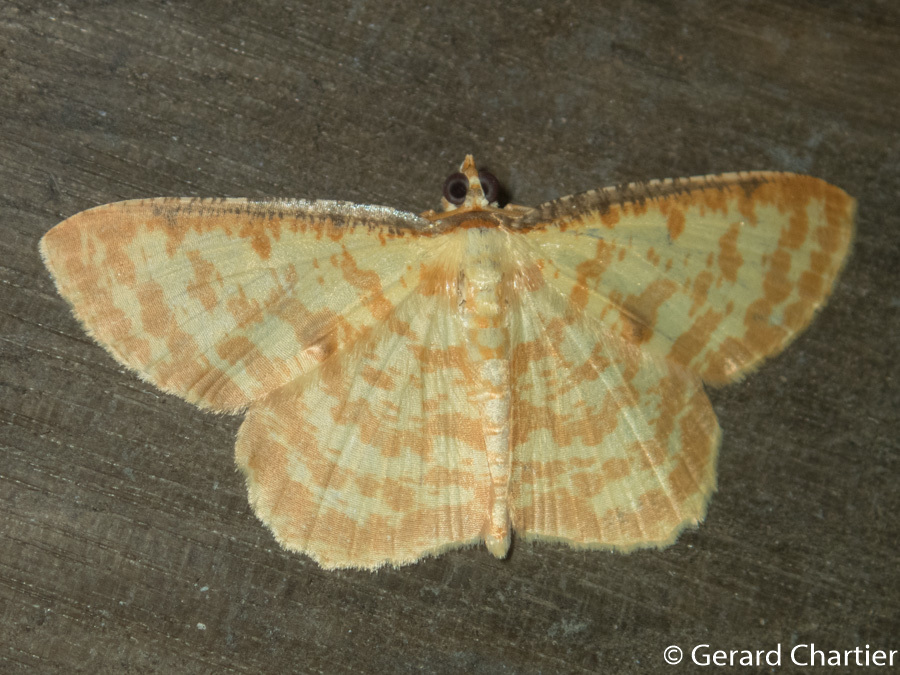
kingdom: Animalia
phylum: Arthropoda
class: Insecta
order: Lepidoptera
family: Geometridae
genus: Synegia
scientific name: Synegia botydaria
